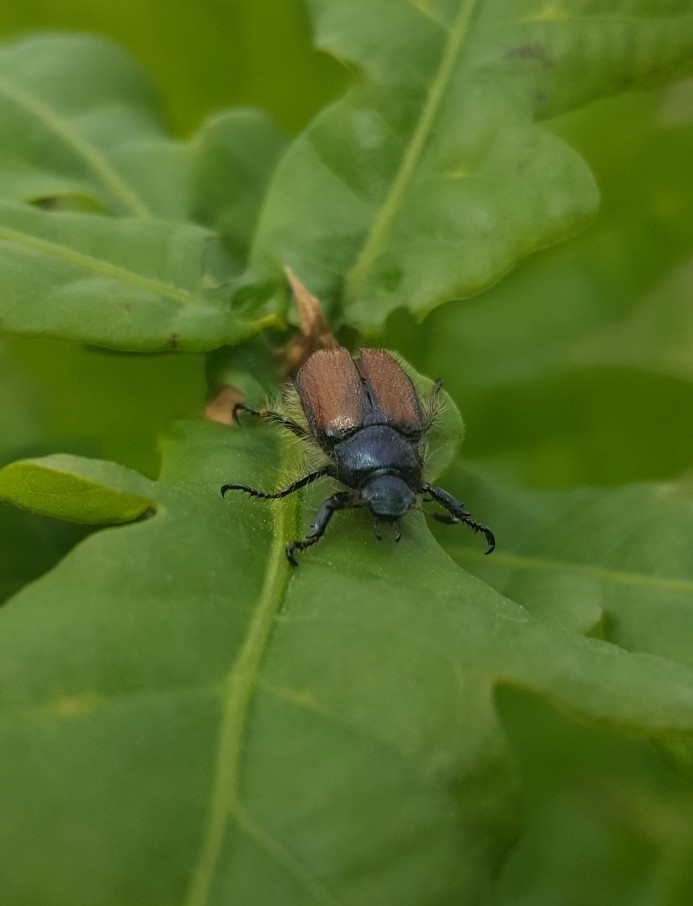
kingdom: Animalia
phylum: Arthropoda
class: Insecta
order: Coleoptera
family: Scarabaeidae
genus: Phyllopertha
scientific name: Phyllopertha horticola
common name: Garden chafer
